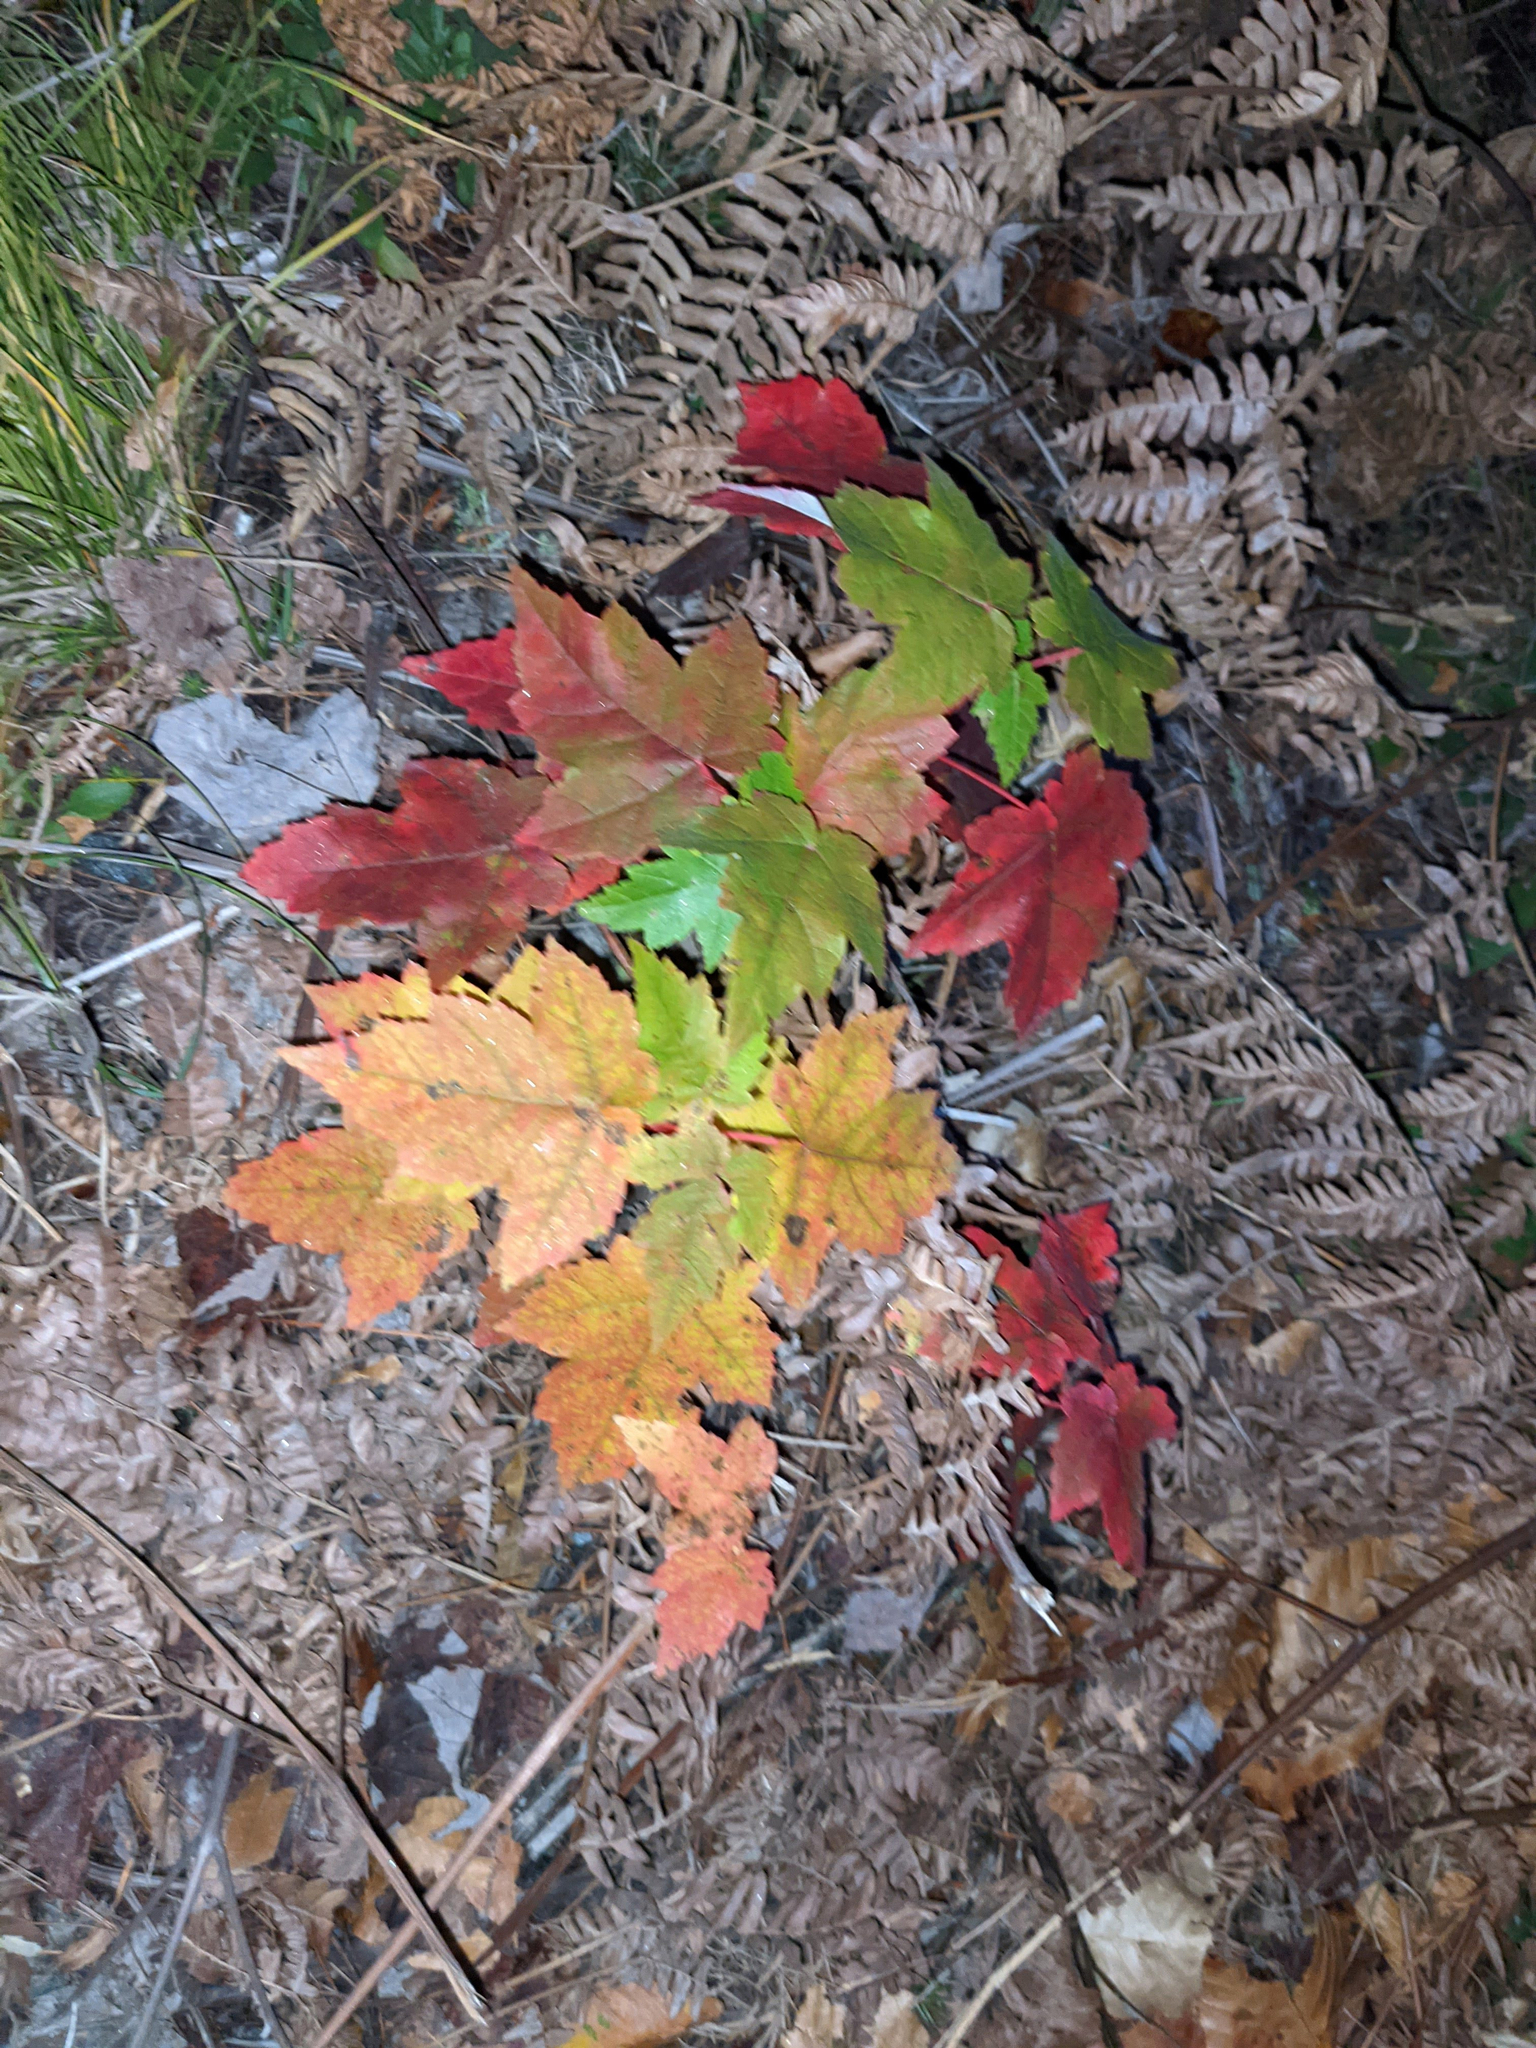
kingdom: Plantae
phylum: Tracheophyta
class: Magnoliopsida
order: Sapindales
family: Sapindaceae
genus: Acer
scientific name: Acer rubrum
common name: Red maple
